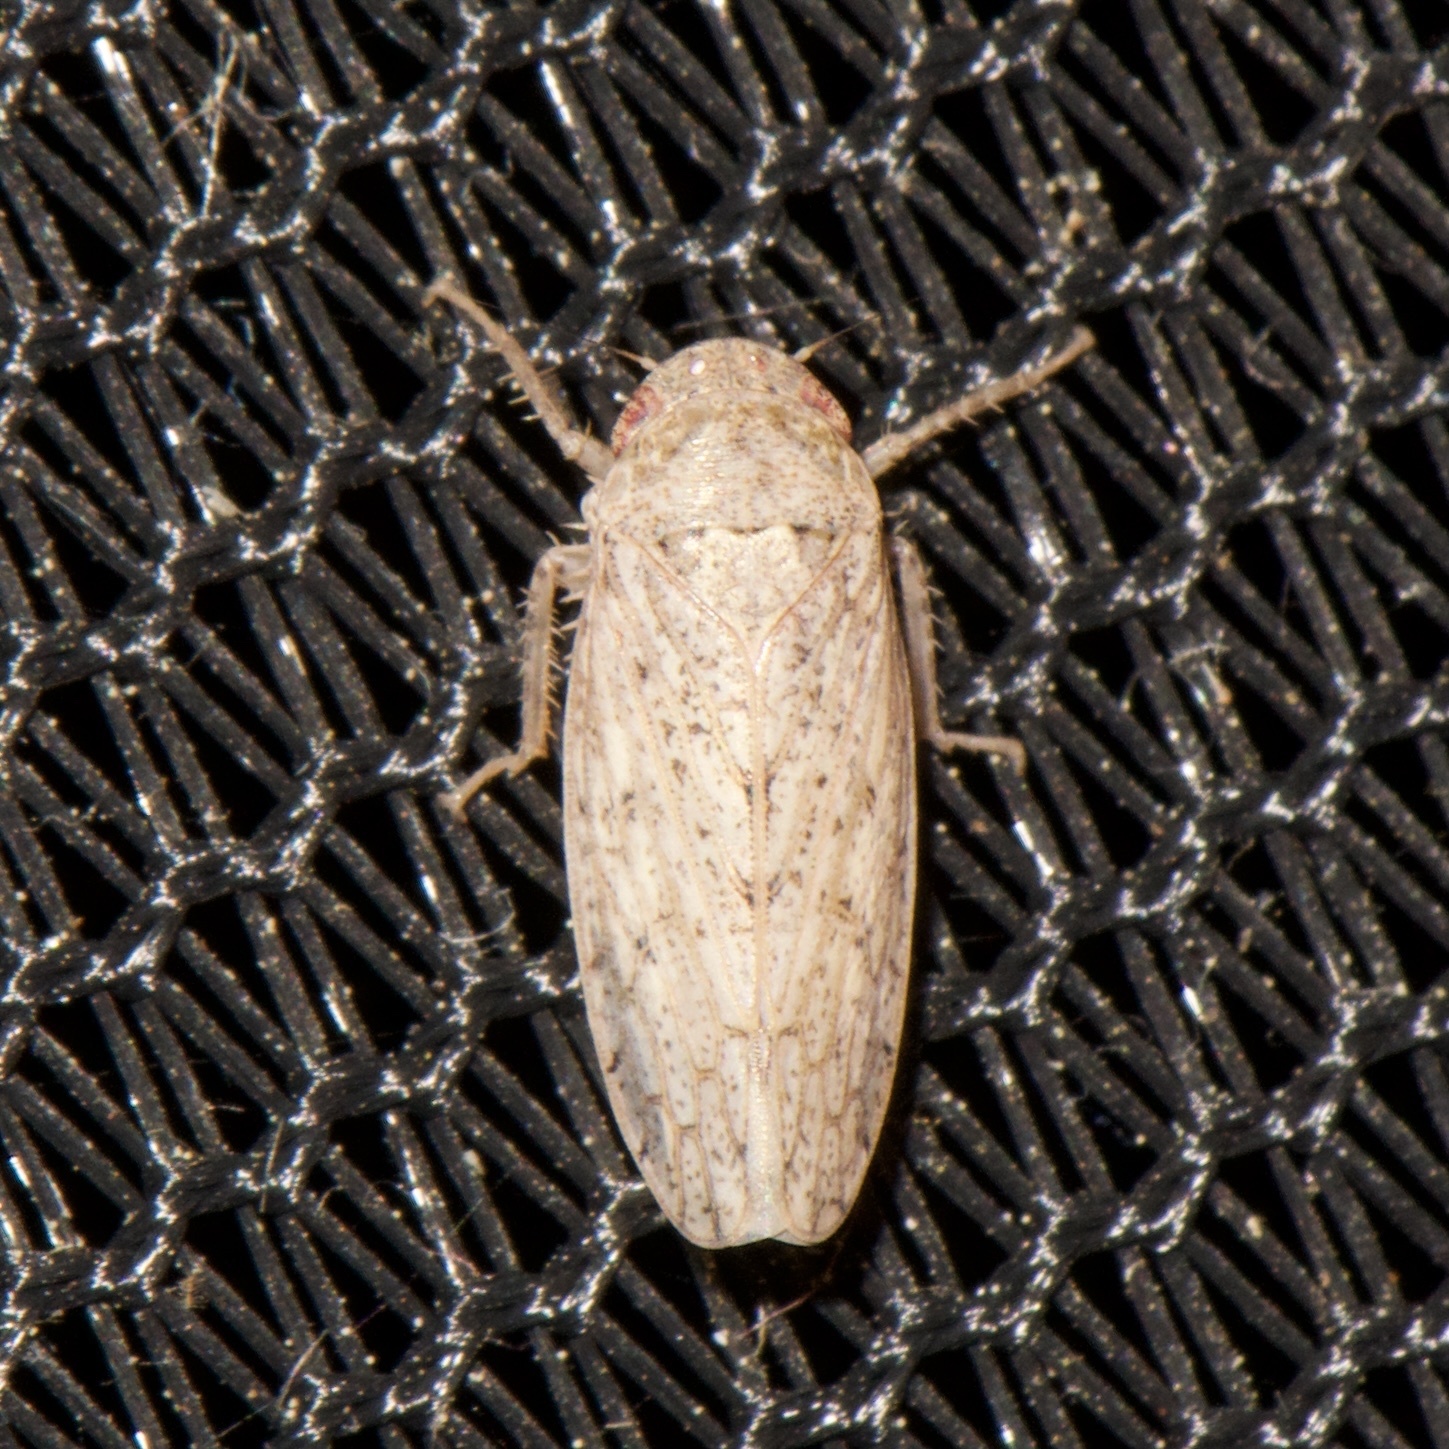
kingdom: Animalia
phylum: Arthropoda
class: Insecta
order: Hemiptera
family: Cicadellidae
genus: Curtara
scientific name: Curtara insularis
